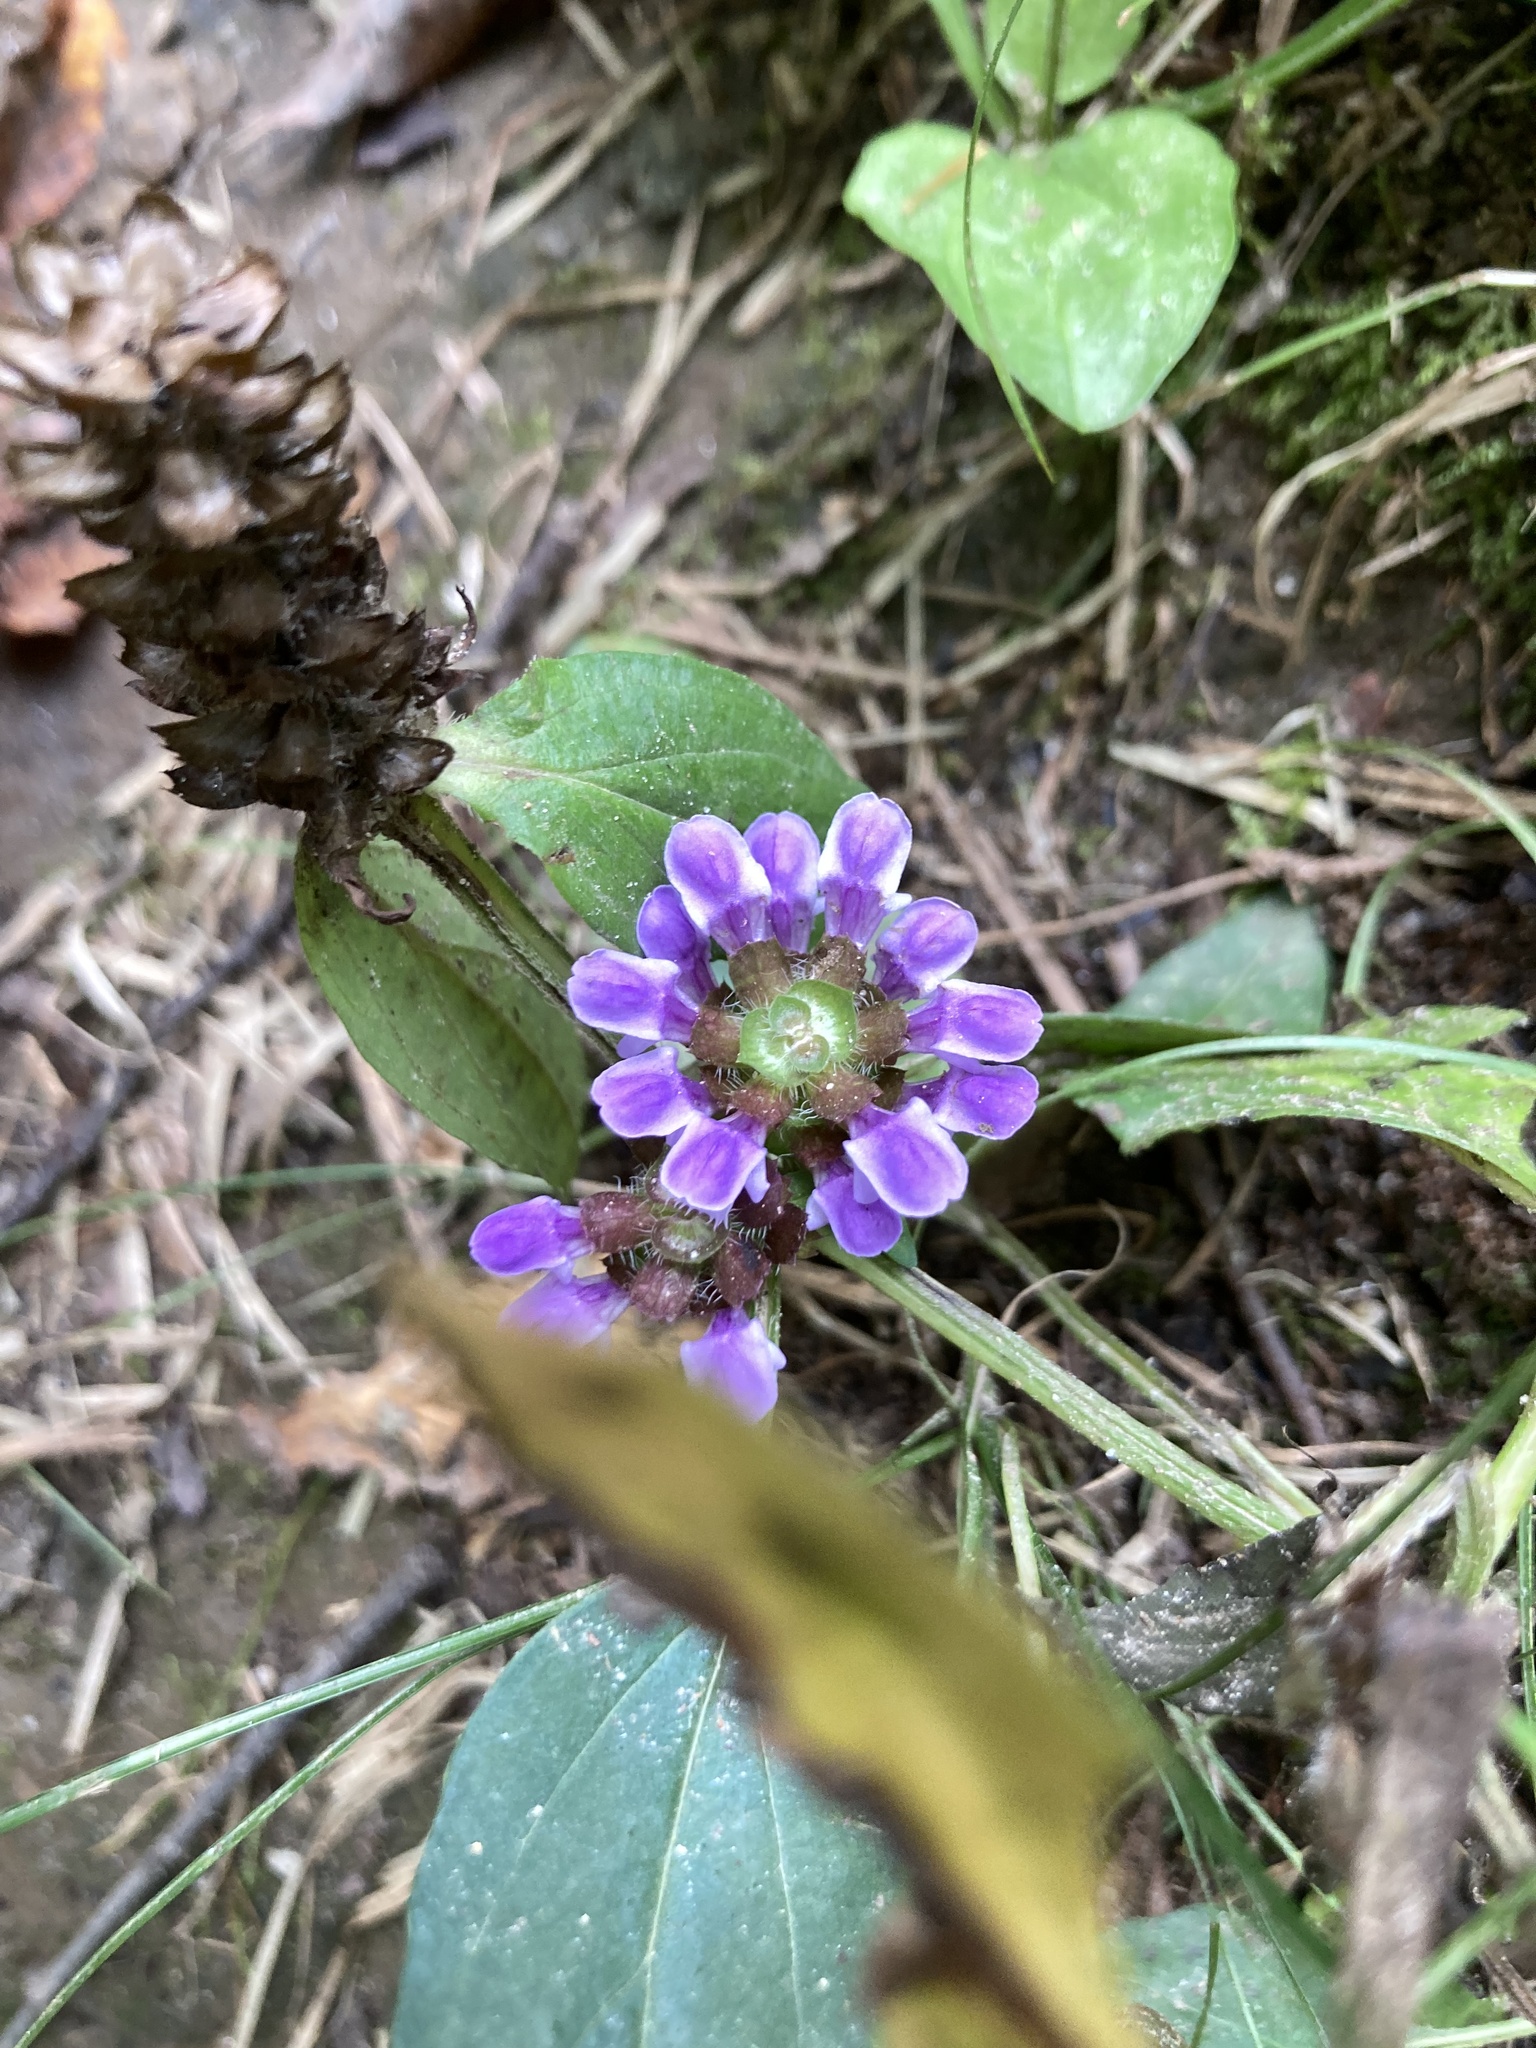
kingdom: Plantae
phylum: Tracheophyta
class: Magnoliopsida
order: Lamiales
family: Lamiaceae
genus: Prunella
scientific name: Prunella vulgaris
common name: Heal-all
